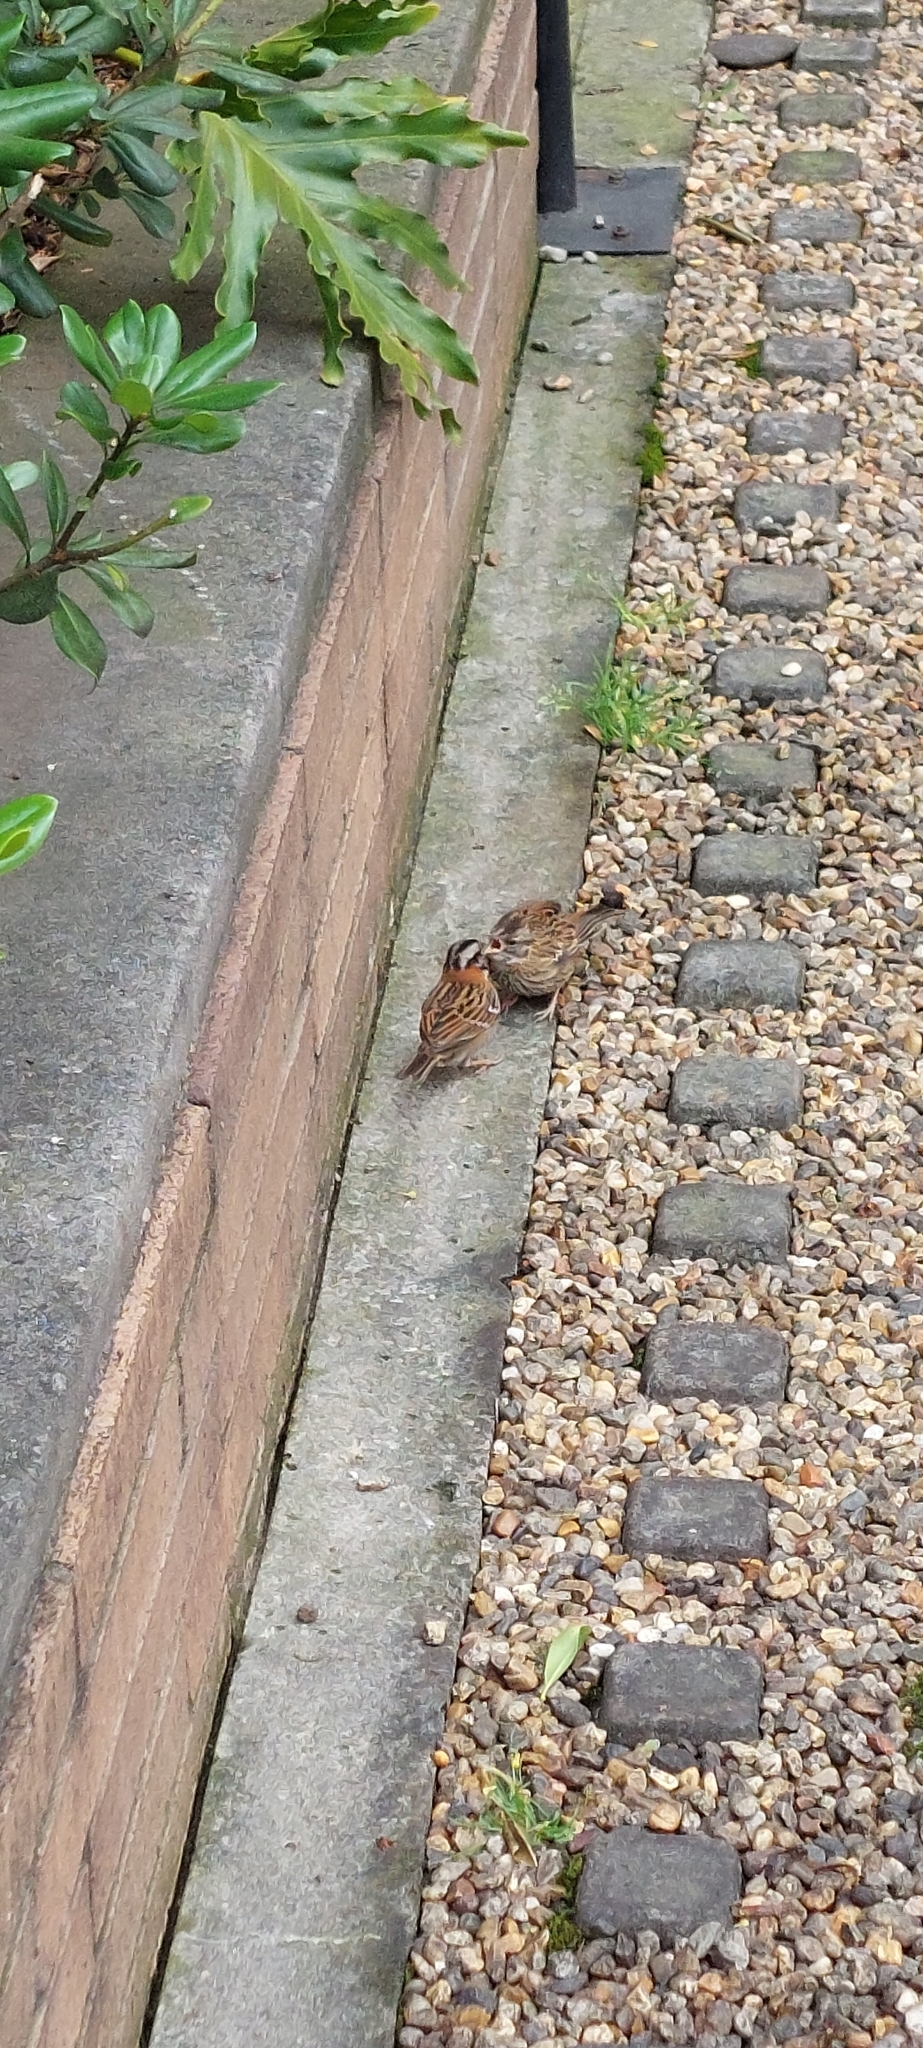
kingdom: Animalia
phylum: Chordata
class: Aves
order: Passeriformes
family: Passerellidae
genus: Zonotrichia
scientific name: Zonotrichia capensis
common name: Rufous-collared sparrow
